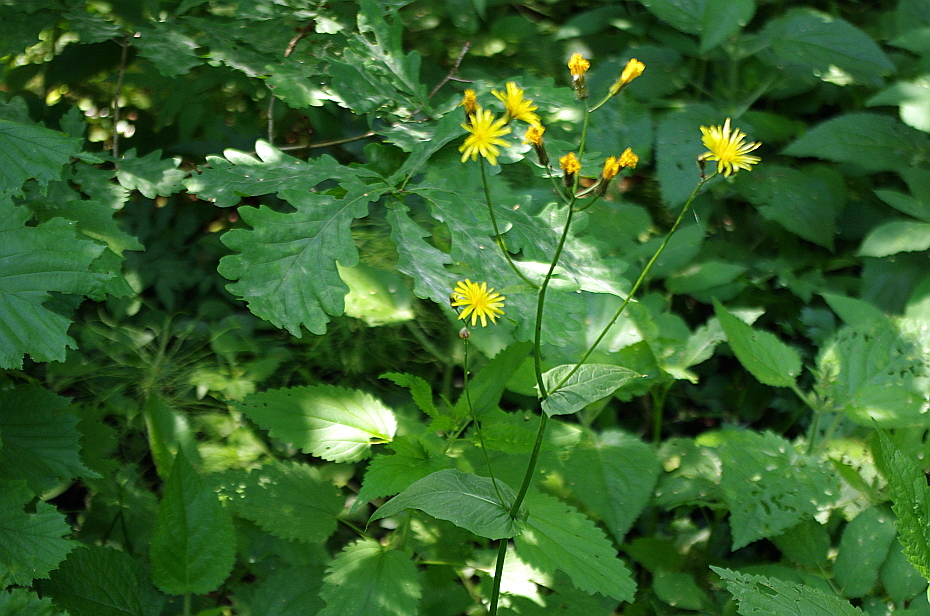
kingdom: Plantae
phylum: Tracheophyta
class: Magnoliopsida
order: Asterales
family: Asteraceae
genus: Crepis
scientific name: Crepis paludosa
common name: Marsh hawk's-beard
